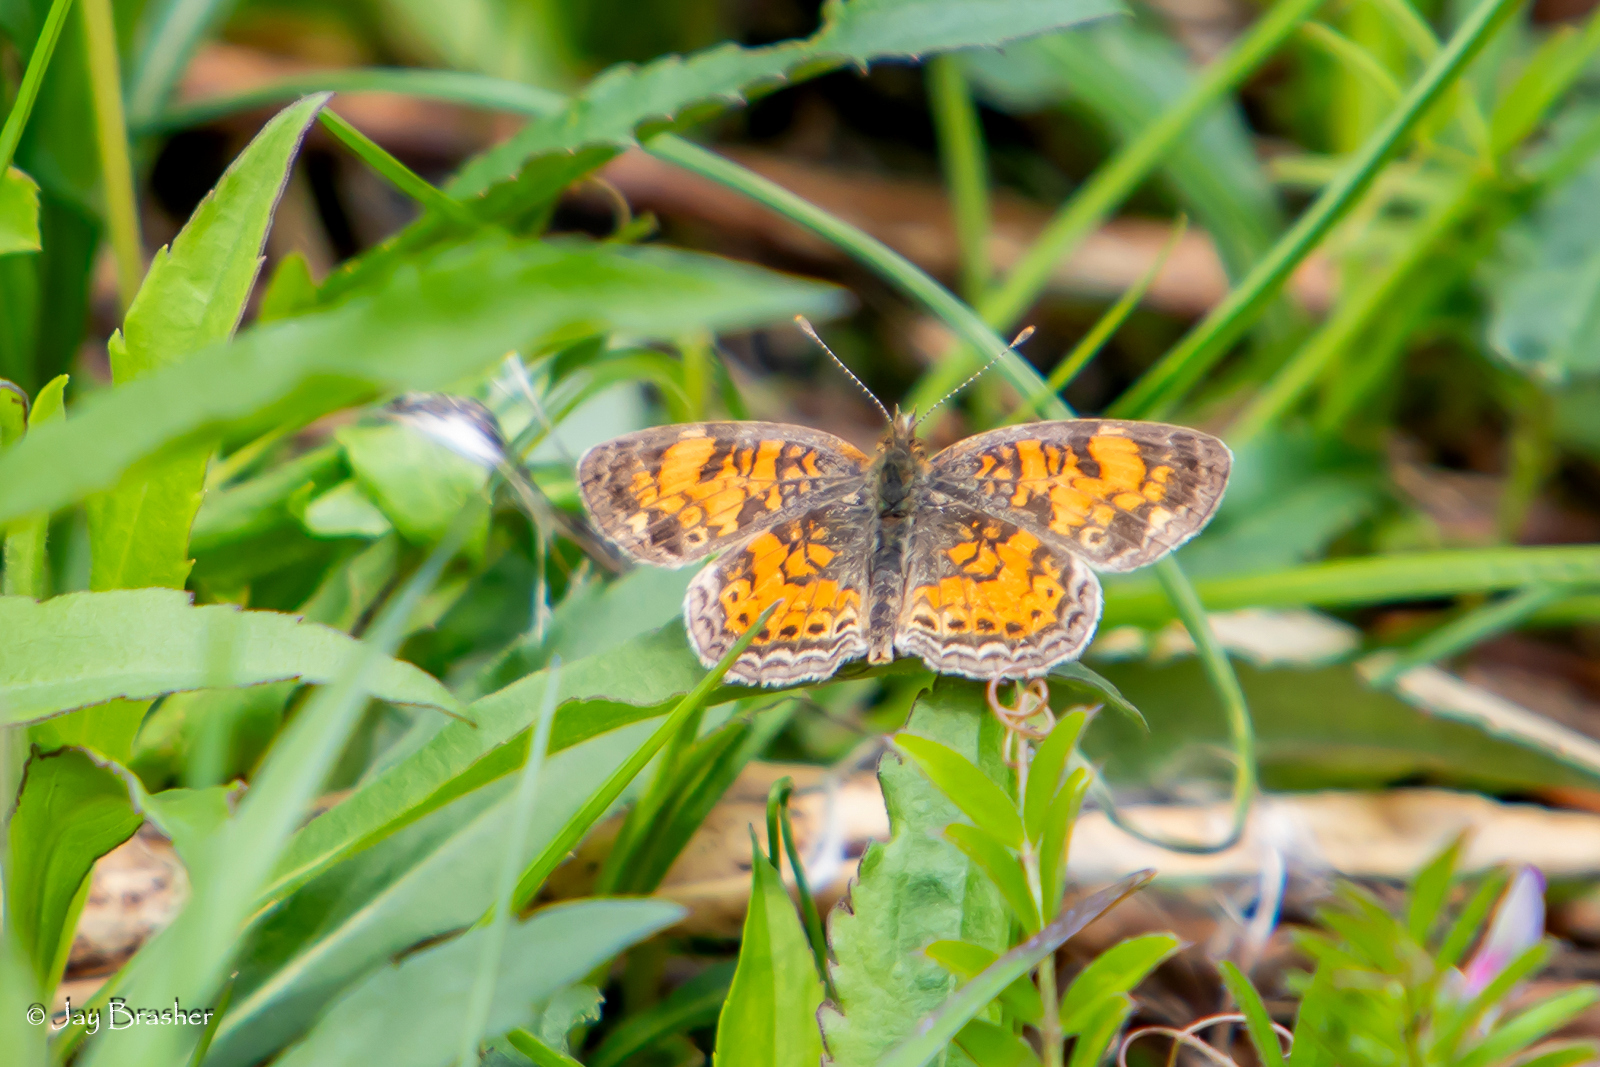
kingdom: Animalia
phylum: Arthropoda
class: Insecta
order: Lepidoptera
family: Nymphalidae
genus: Phyciodes
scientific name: Phyciodes tharos
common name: Pearl crescent
